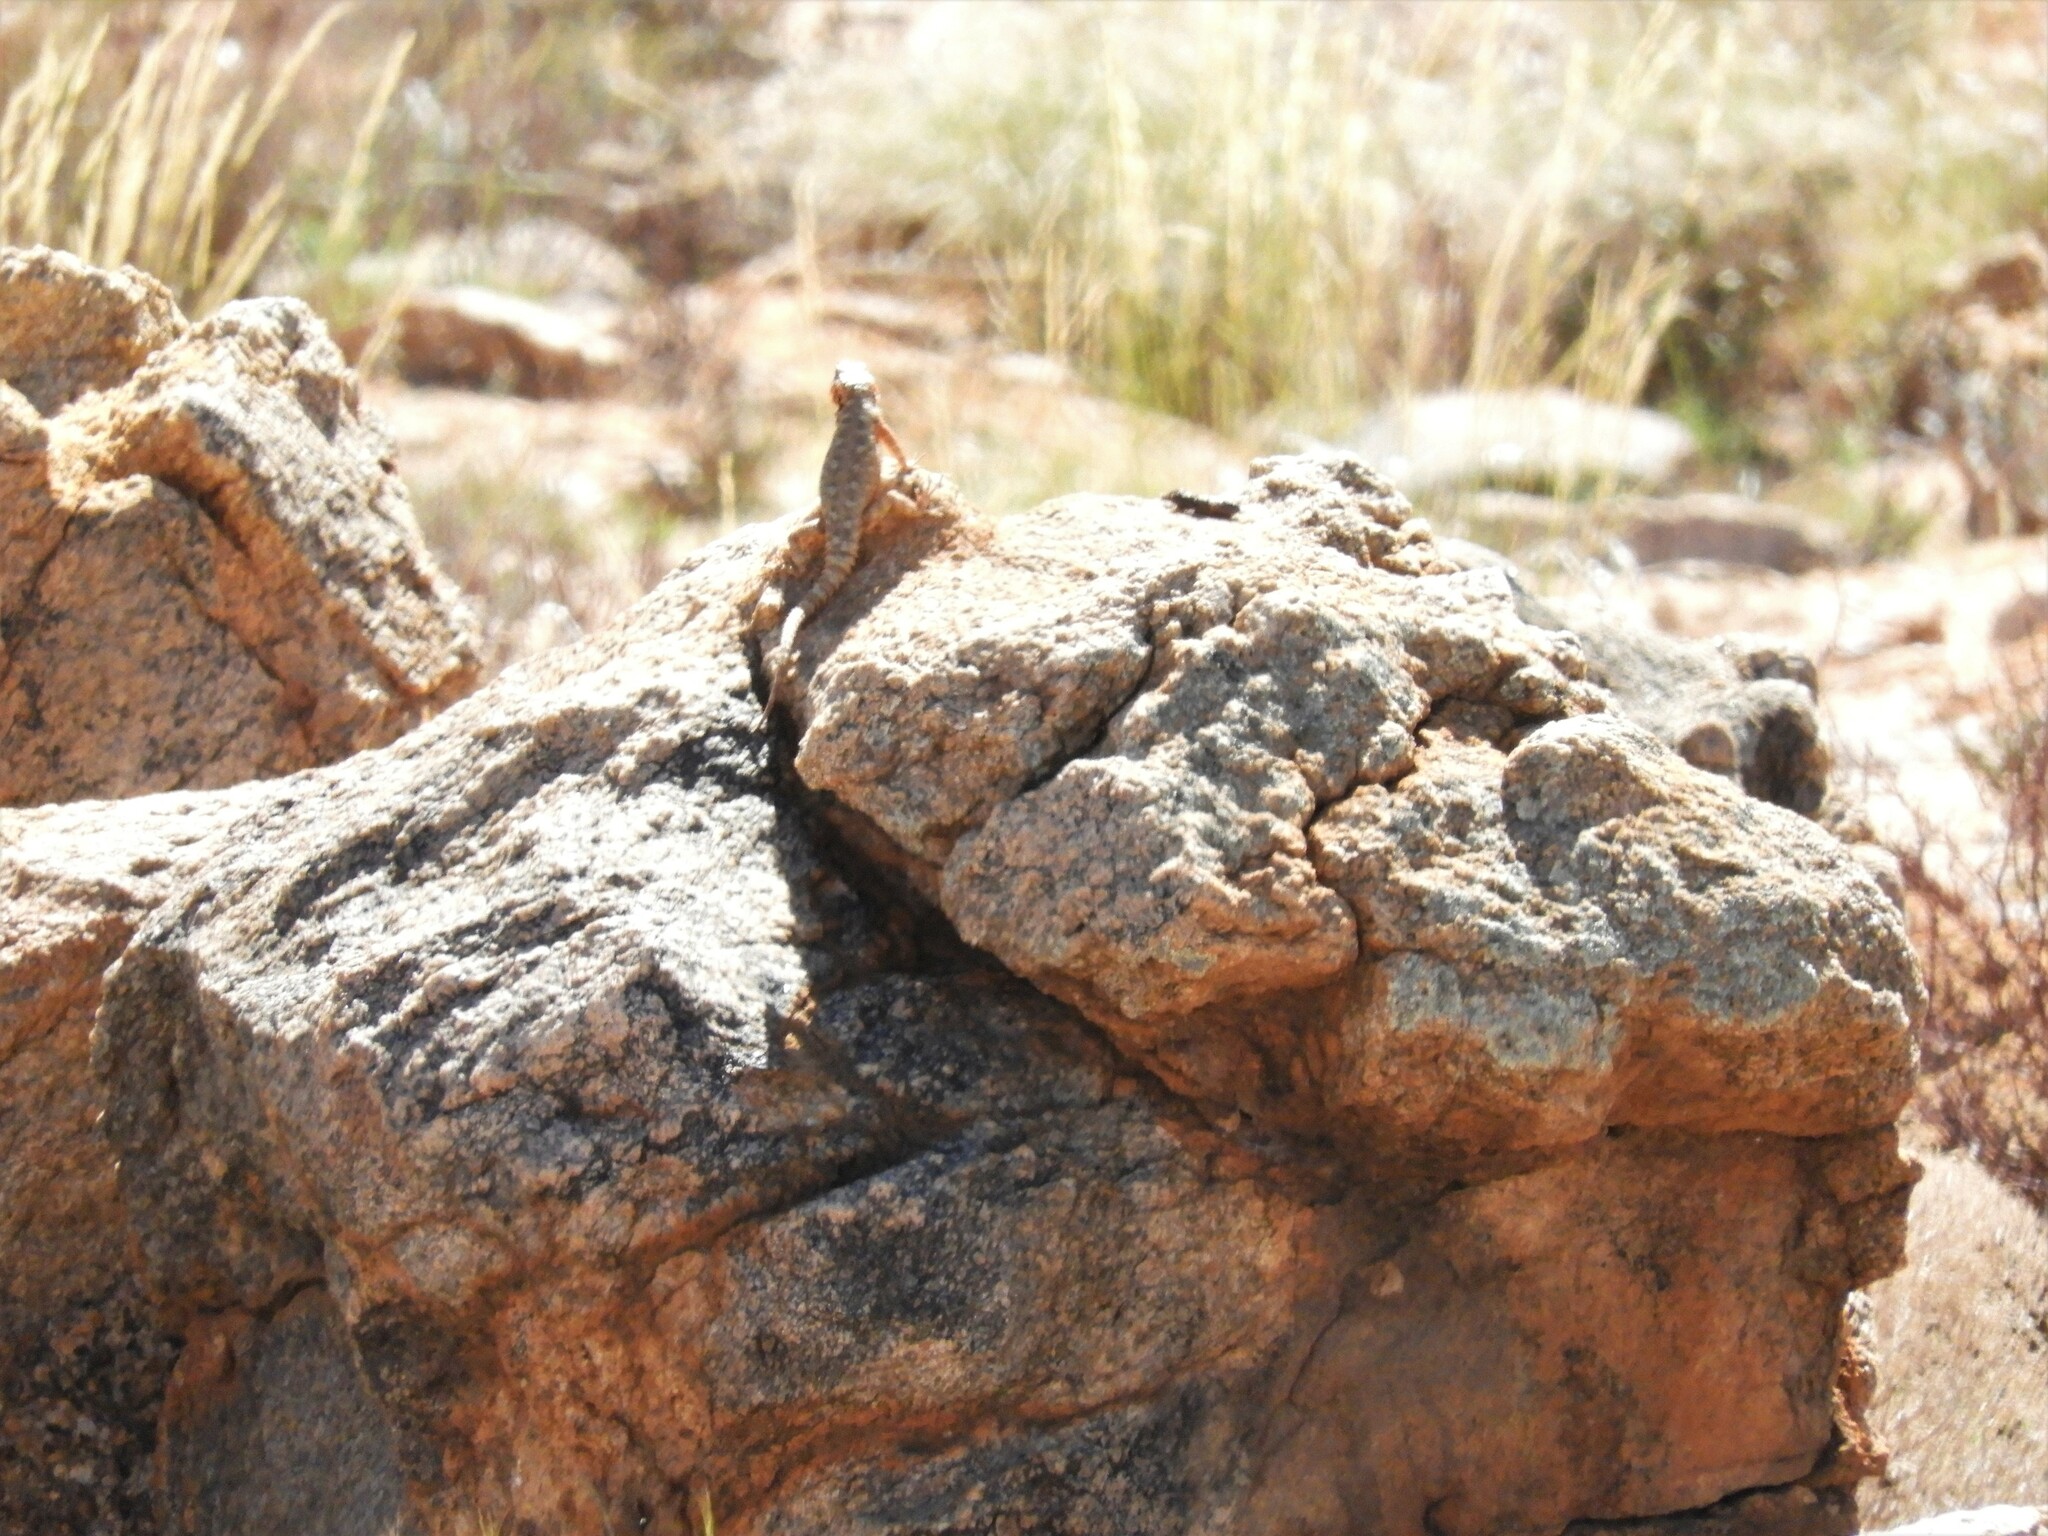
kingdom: Animalia
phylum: Chordata
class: Squamata
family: Cordylidae
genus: Karusasaurus
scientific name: Karusasaurus polyzonus
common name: Karoo girdled lizard
